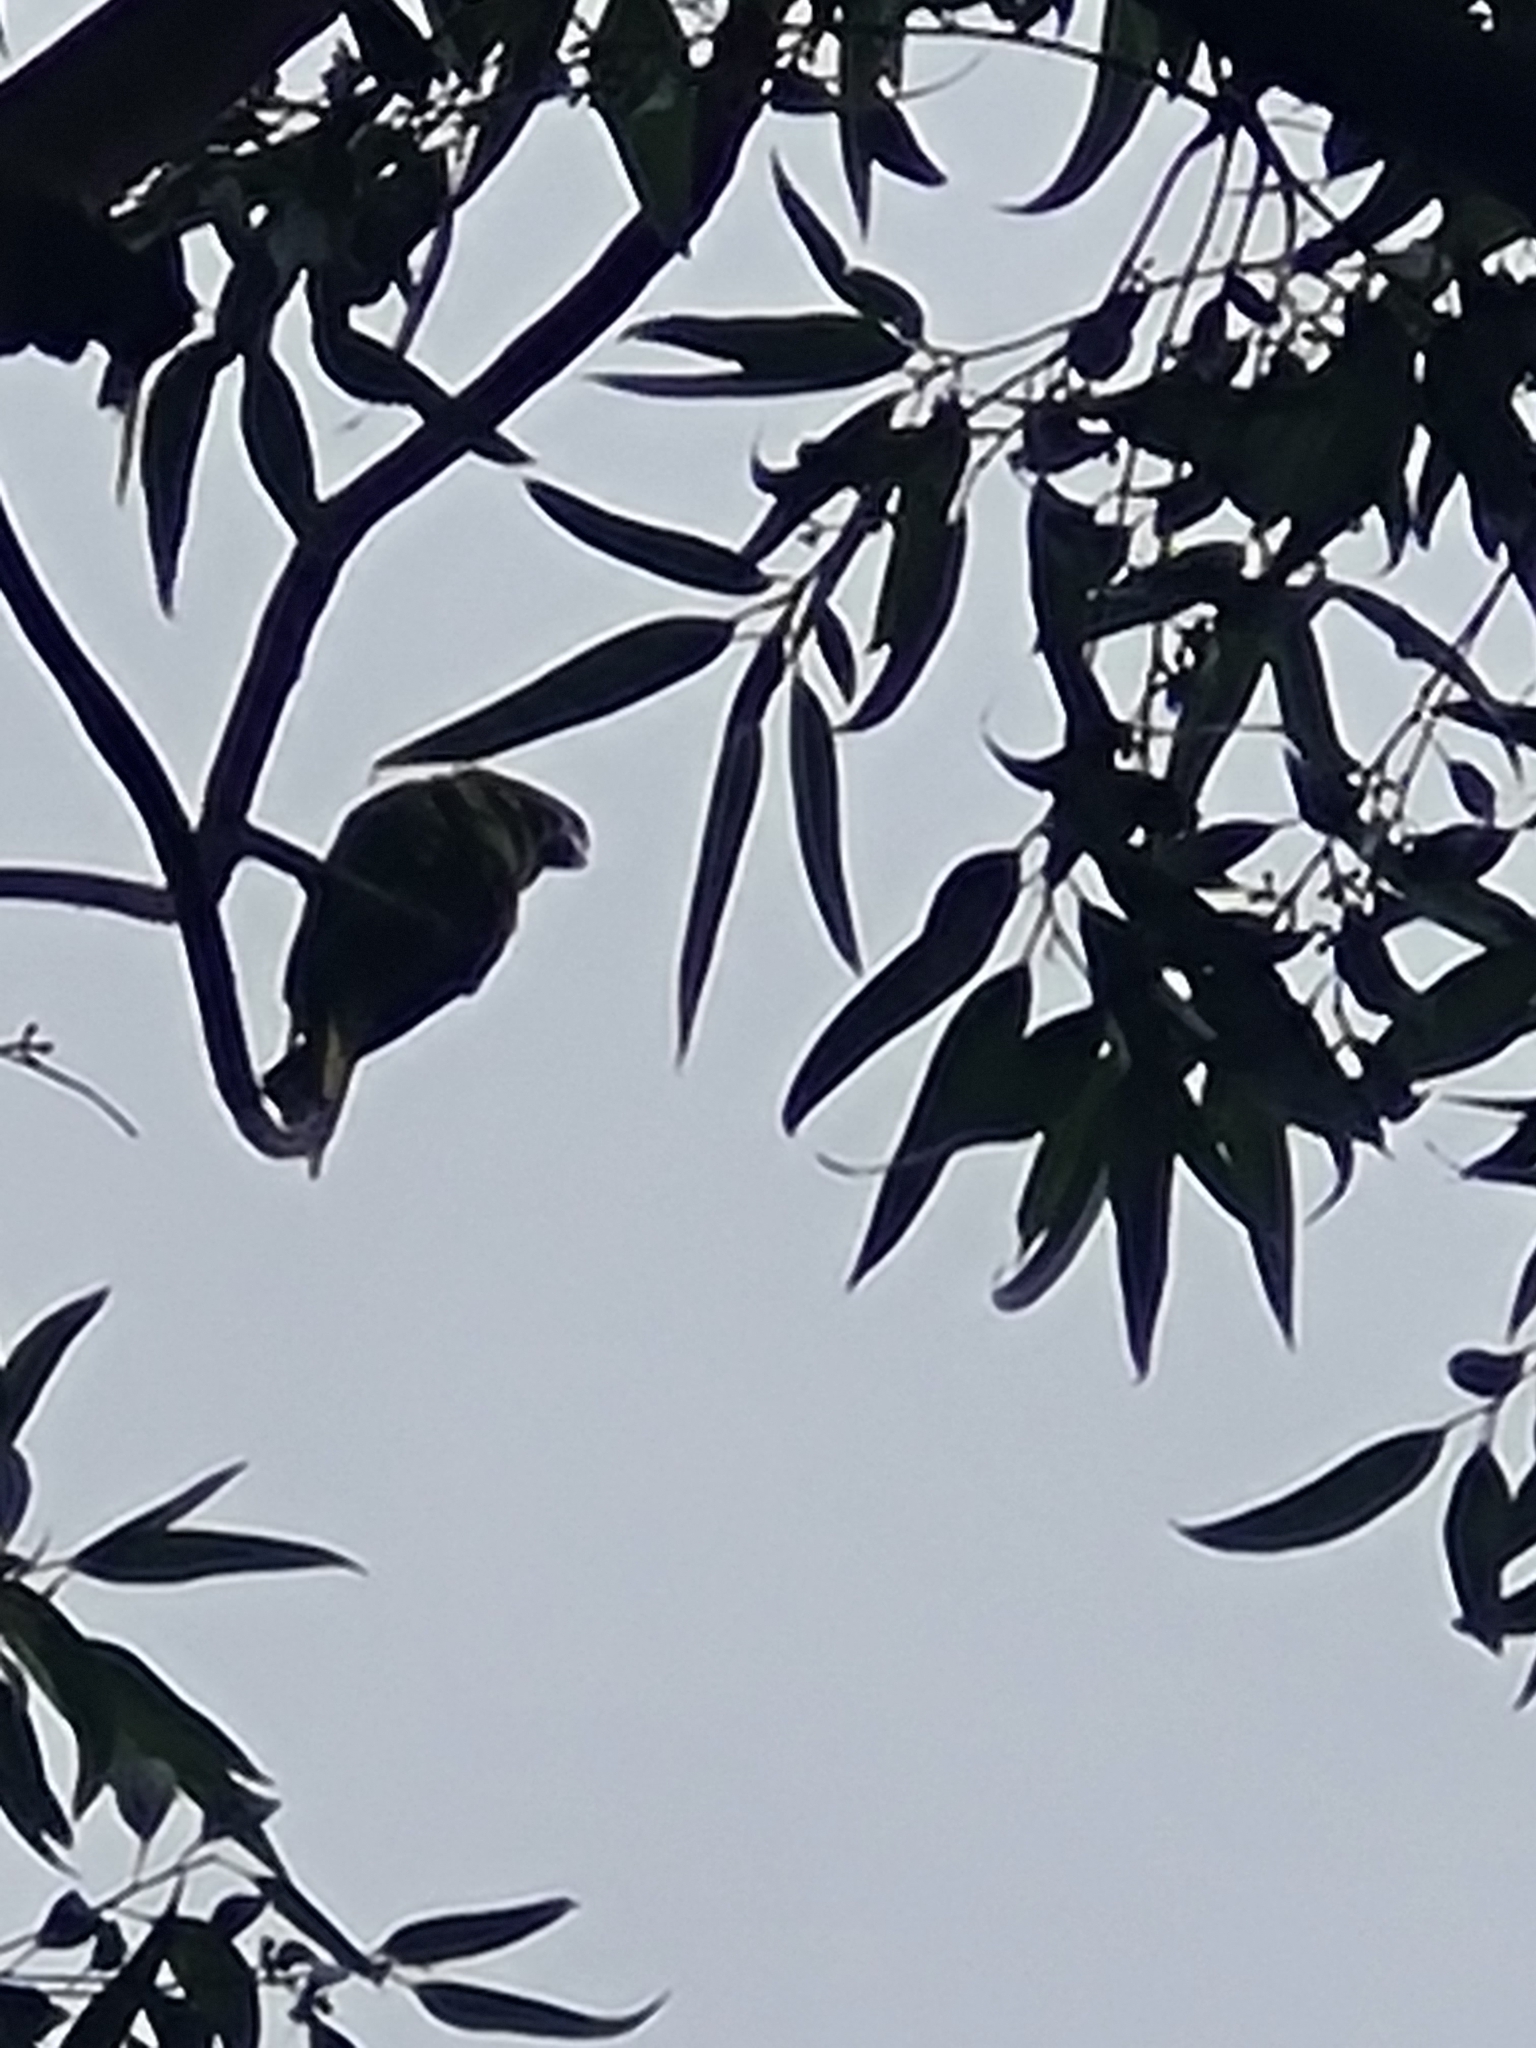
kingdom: Animalia
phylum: Chordata
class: Aves
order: Psittaciformes
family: Psittacidae
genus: Diopsittaca
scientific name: Diopsittaca nobilis
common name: Red-shouldered macaw
